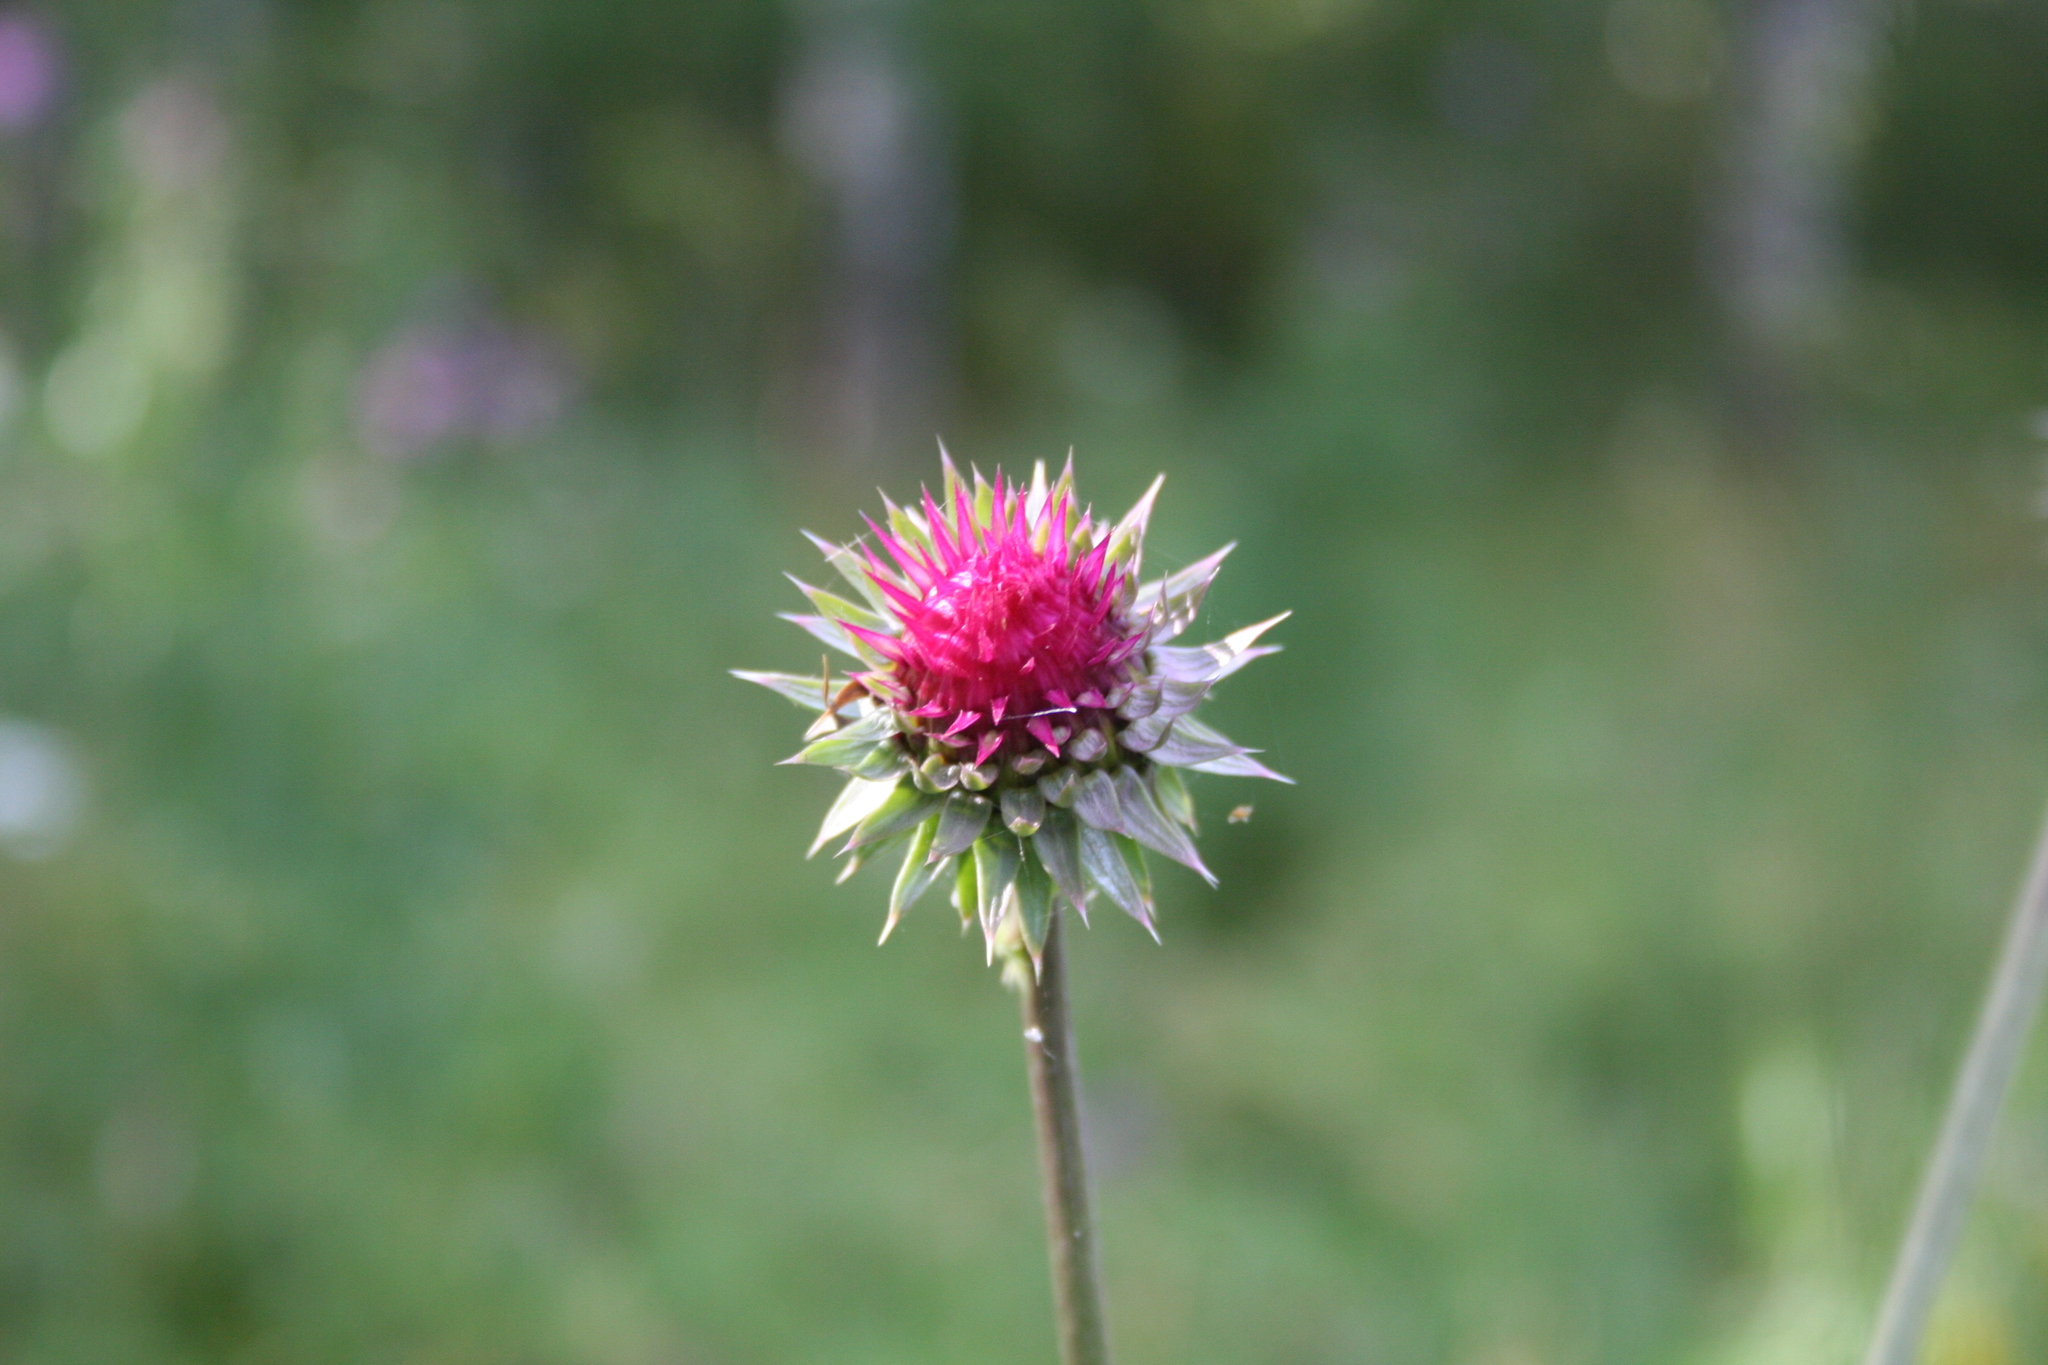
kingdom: Plantae
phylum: Tracheophyta
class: Magnoliopsida
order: Asterales
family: Asteraceae
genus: Carduus
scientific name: Carduus nutans
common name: Musk thistle
